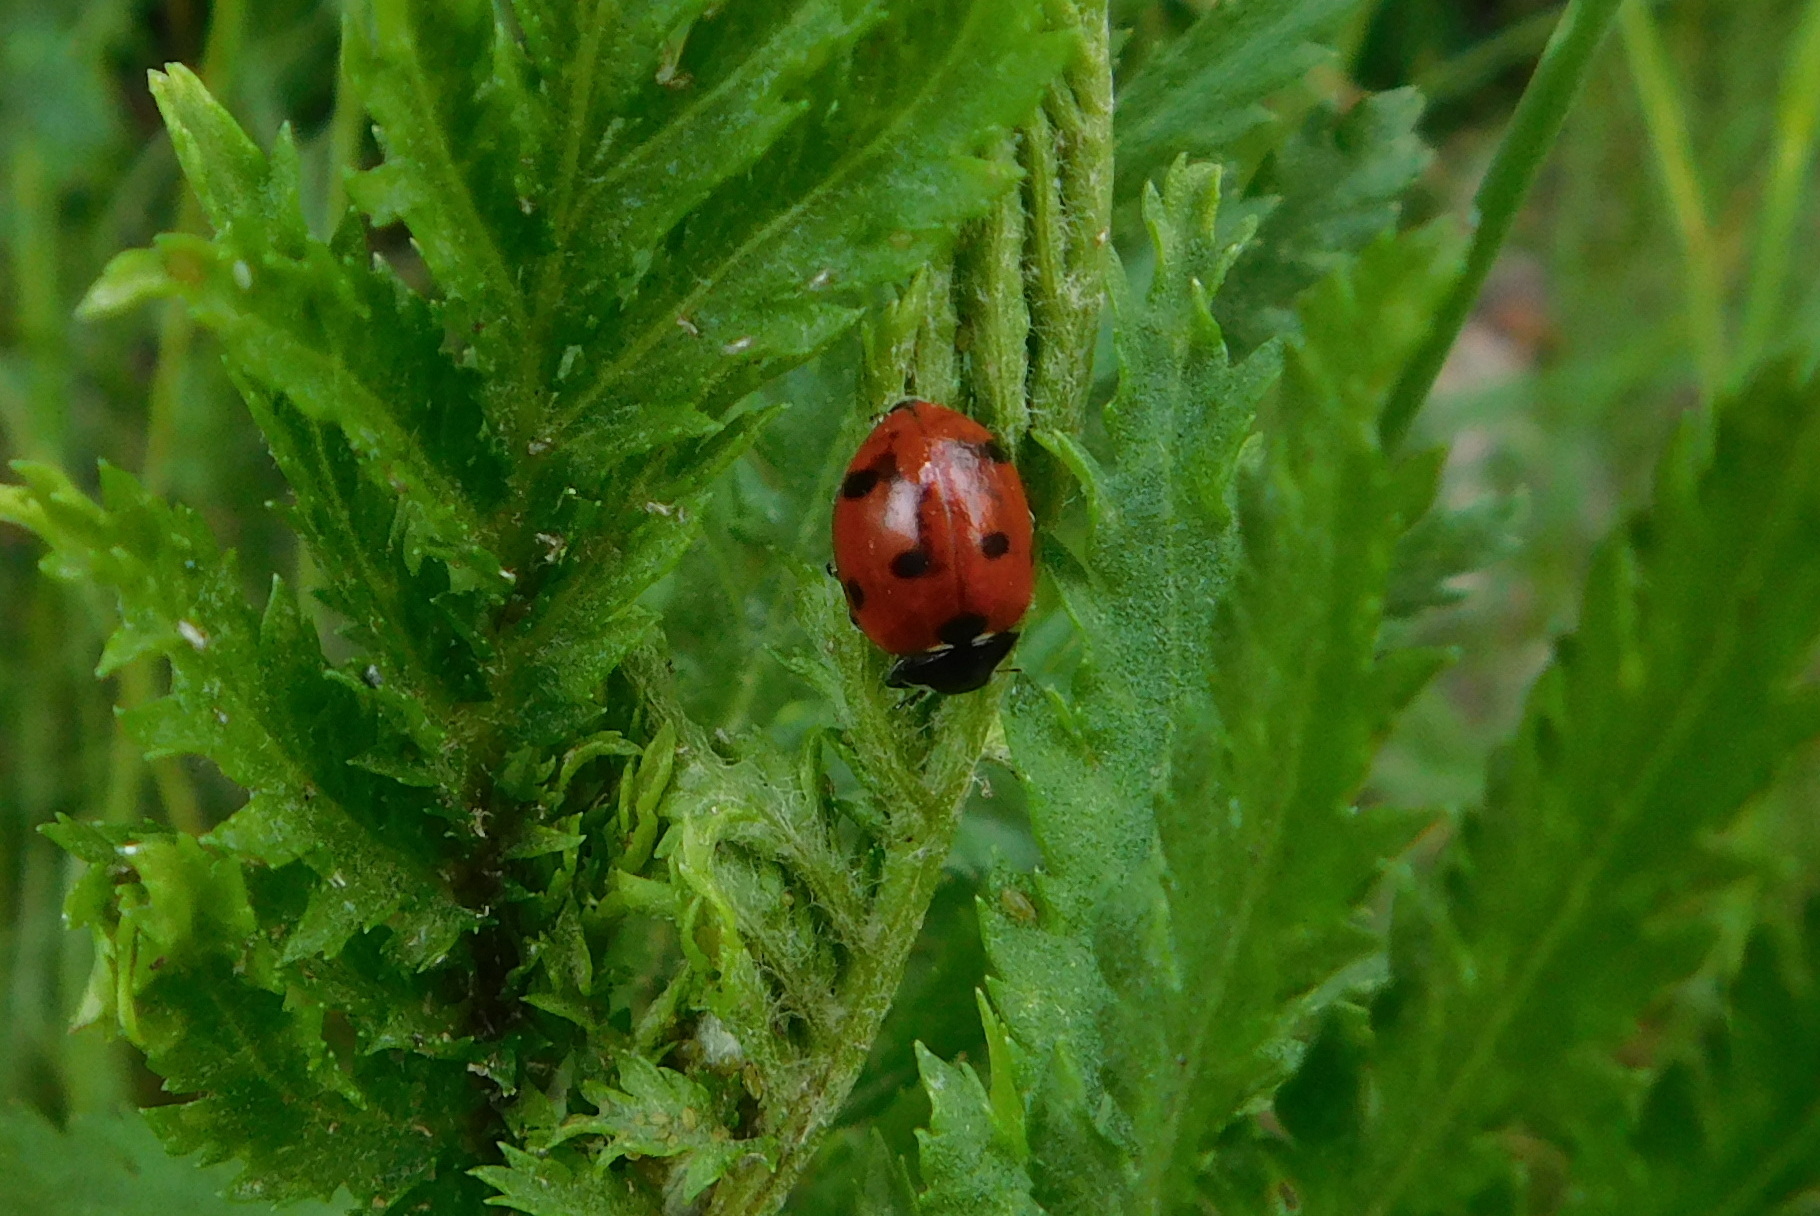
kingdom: Animalia
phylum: Arthropoda
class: Insecta
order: Coleoptera
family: Coccinellidae
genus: Coccinella
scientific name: Coccinella septempunctata
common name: Sevenspotted lady beetle
